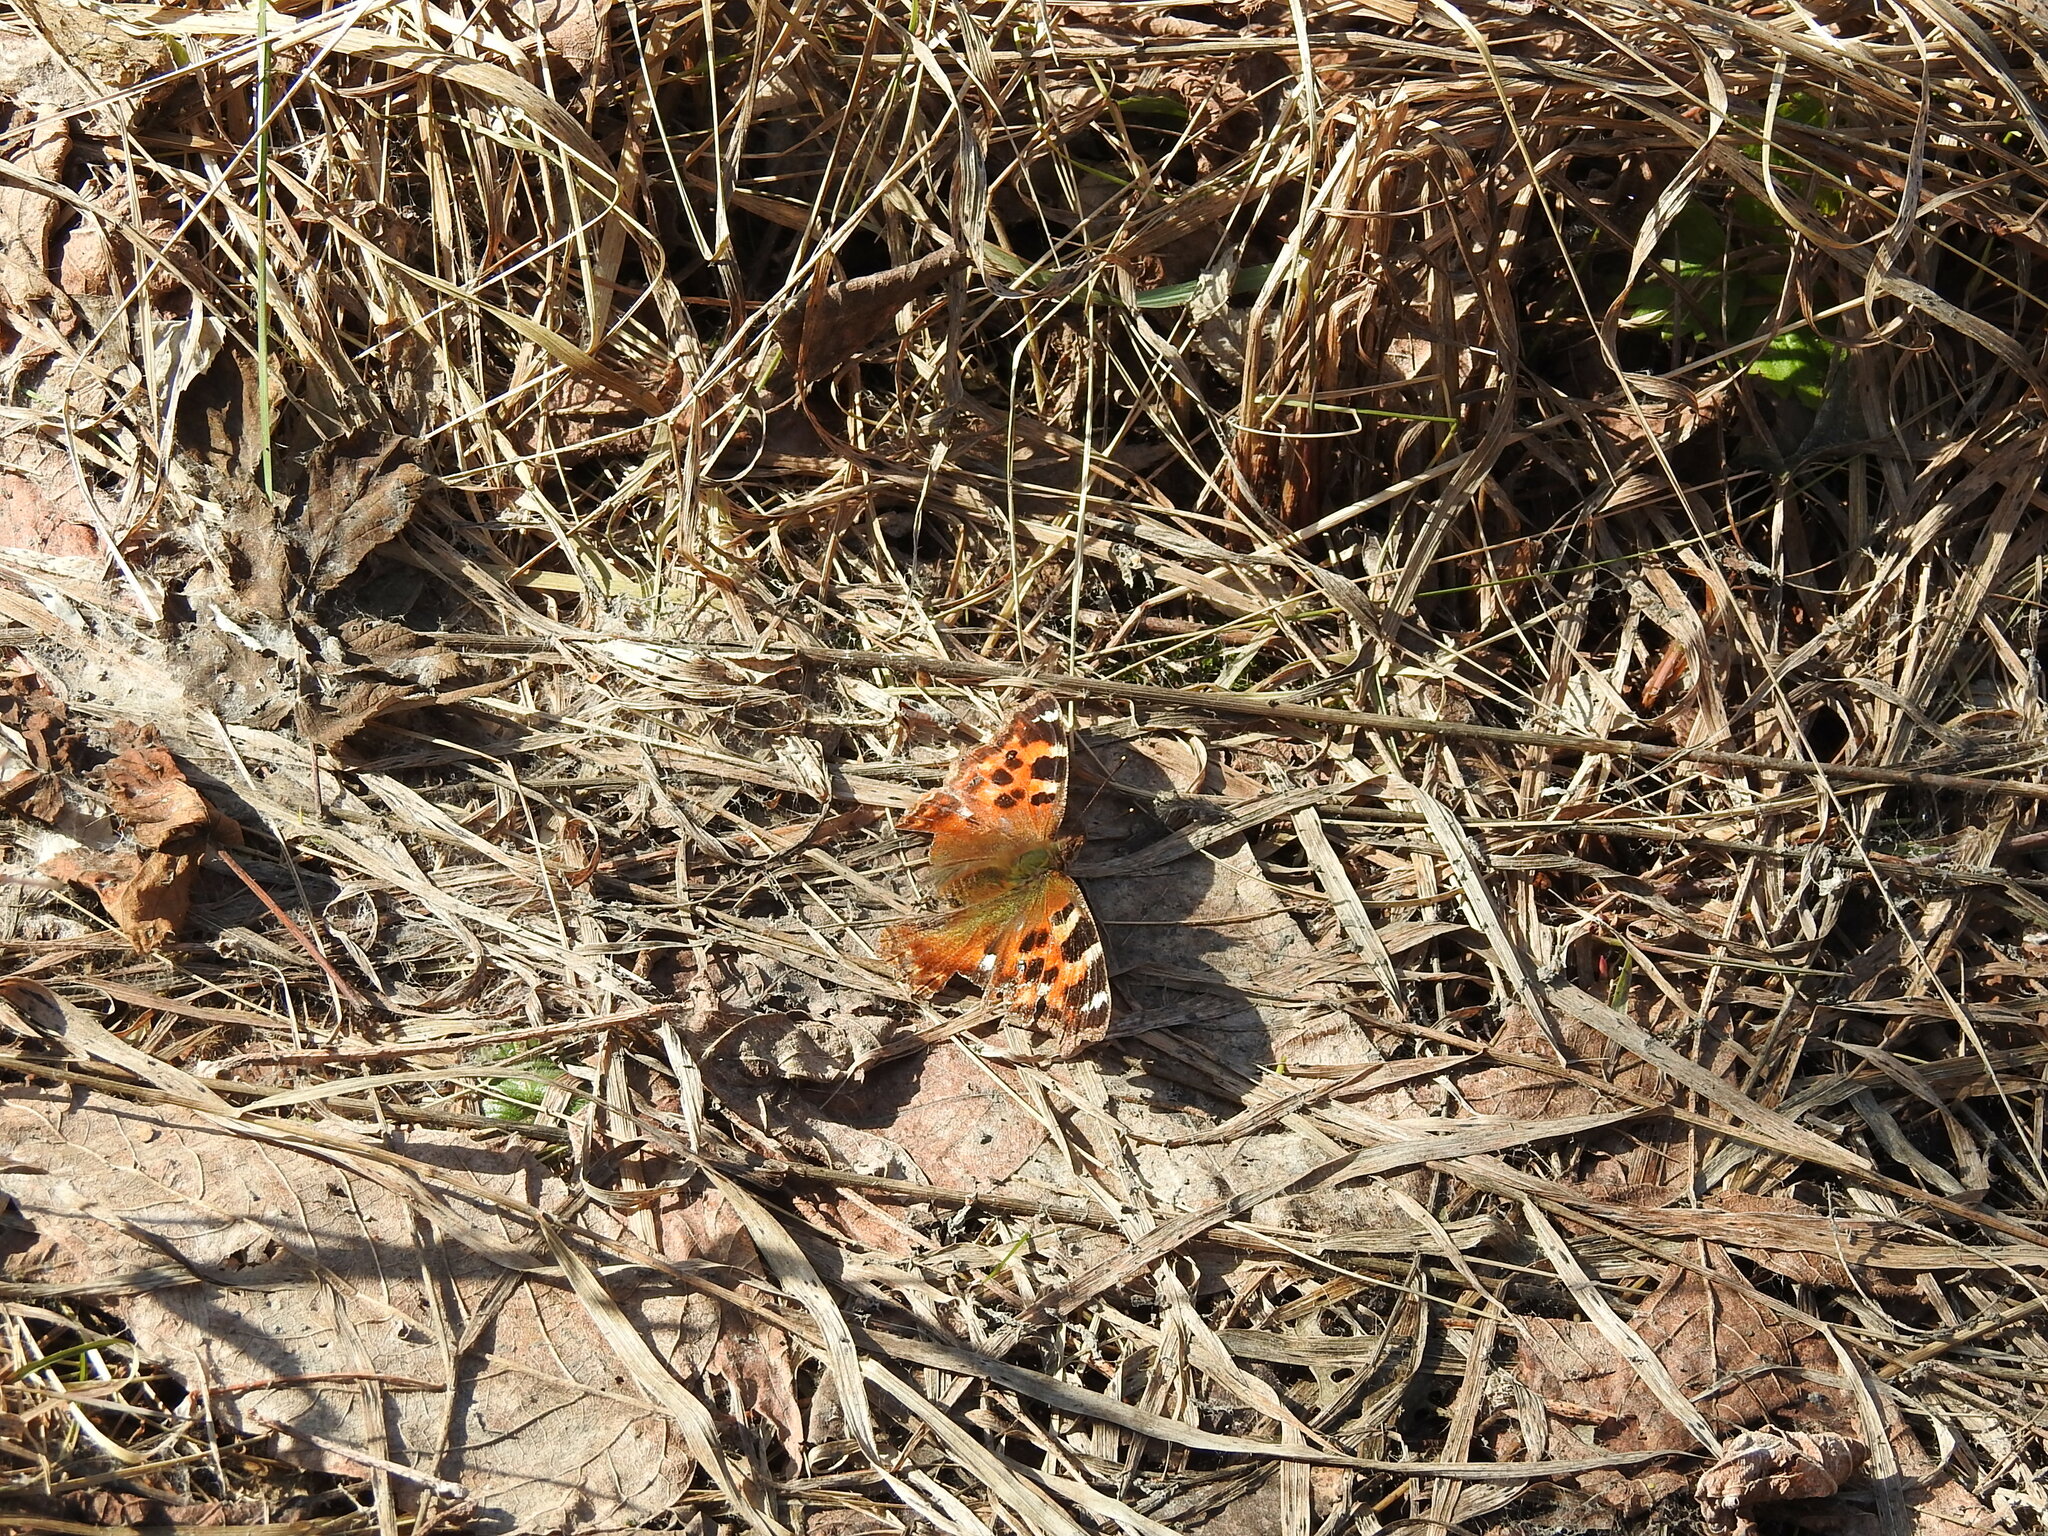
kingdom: Animalia
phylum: Arthropoda
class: Insecta
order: Lepidoptera
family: Nymphalidae
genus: Polygonia
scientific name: Polygonia vaualbum
